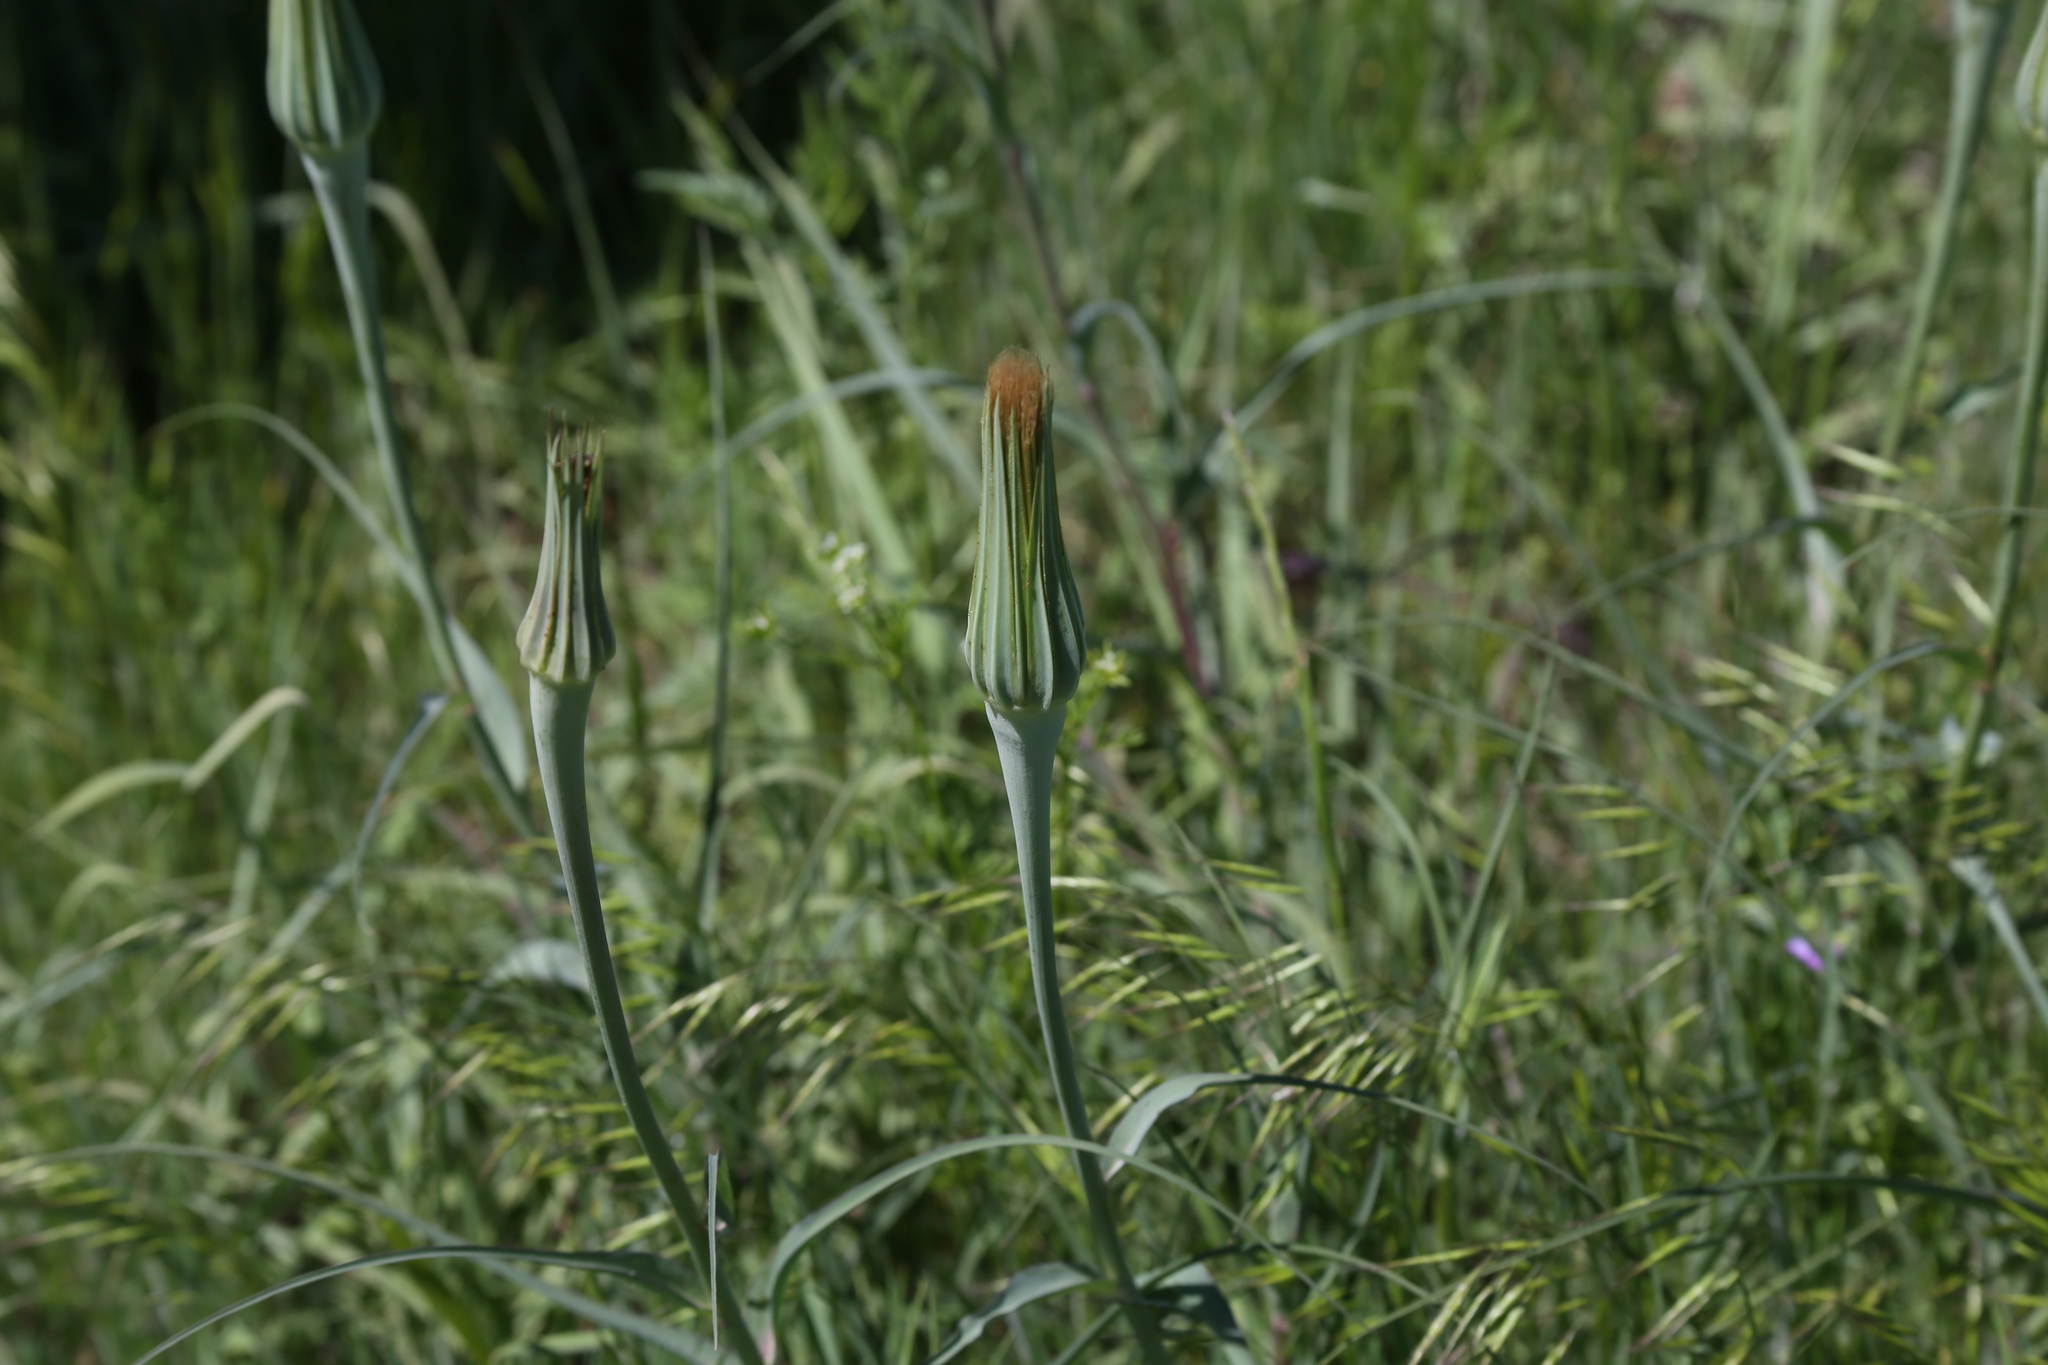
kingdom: Plantae
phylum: Tracheophyta
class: Magnoliopsida
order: Asterales
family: Asteraceae
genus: Tragopogon
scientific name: Tragopogon dubius
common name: Yellow salsify
